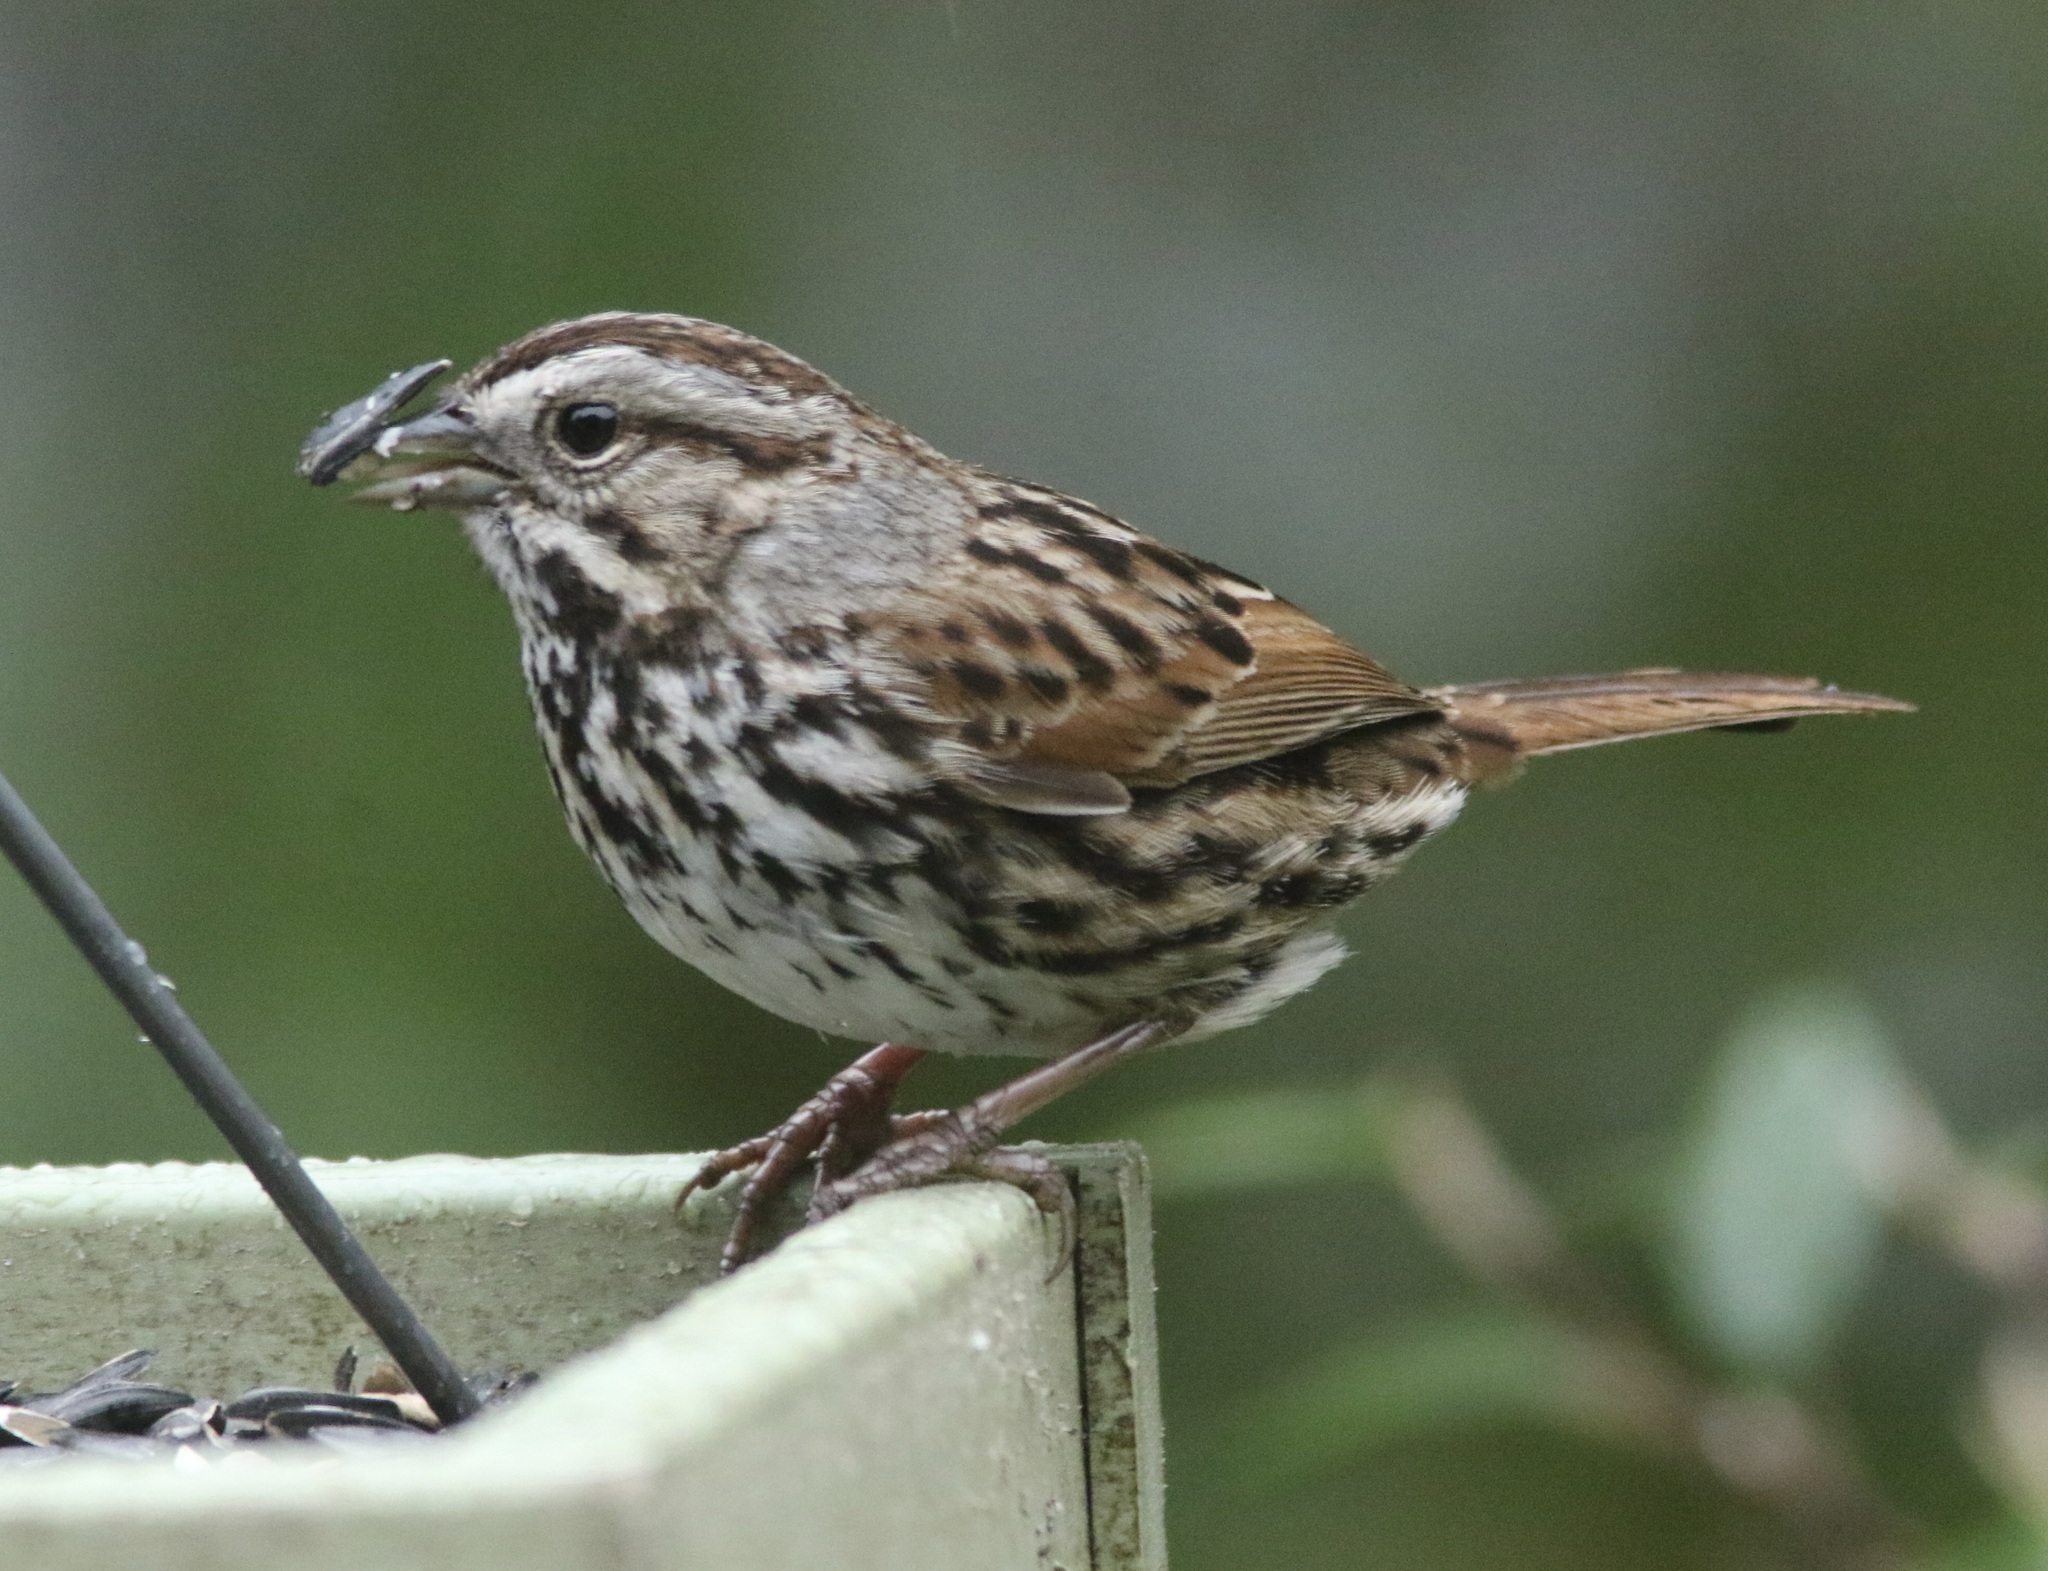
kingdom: Animalia
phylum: Chordata
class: Aves
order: Passeriformes
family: Passerellidae
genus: Melospiza
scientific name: Melospiza melodia
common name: Song sparrow
